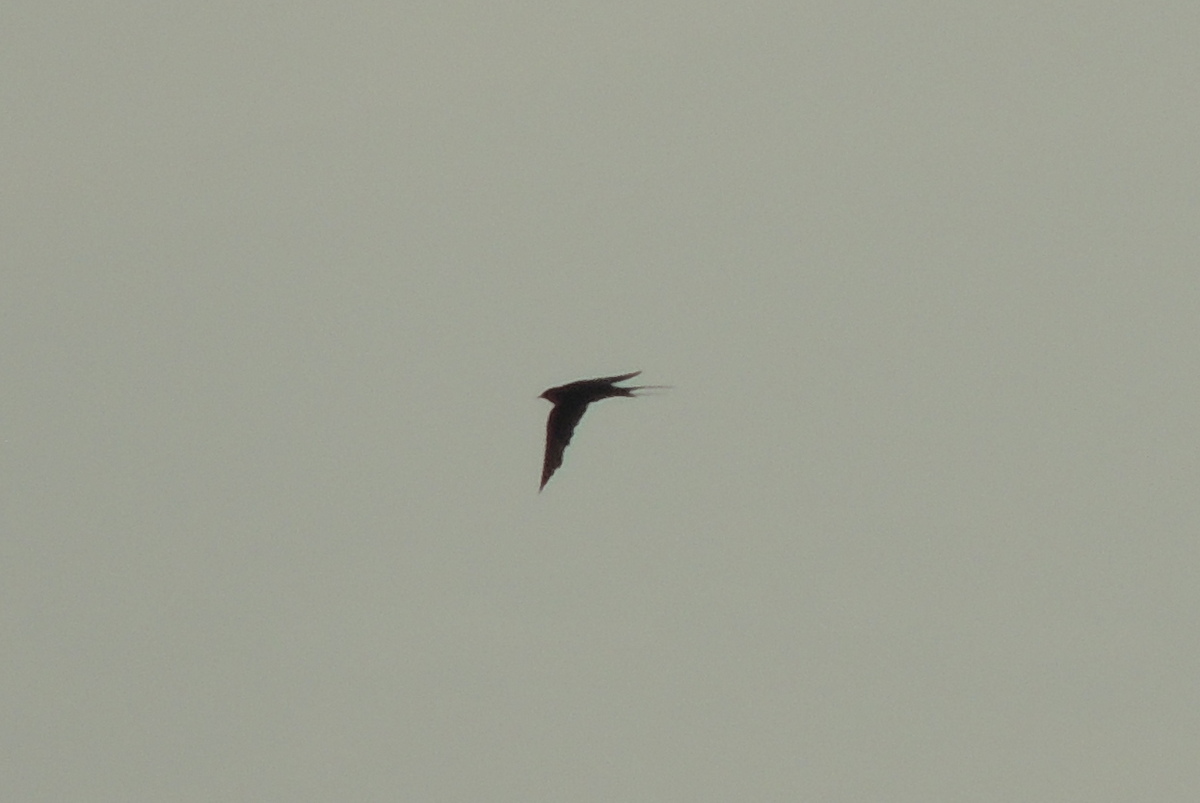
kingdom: Animalia
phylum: Chordata
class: Aves
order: Passeriformes
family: Hirundinidae
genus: Hirundo
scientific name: Hirundo rustica
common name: Barn swallow
